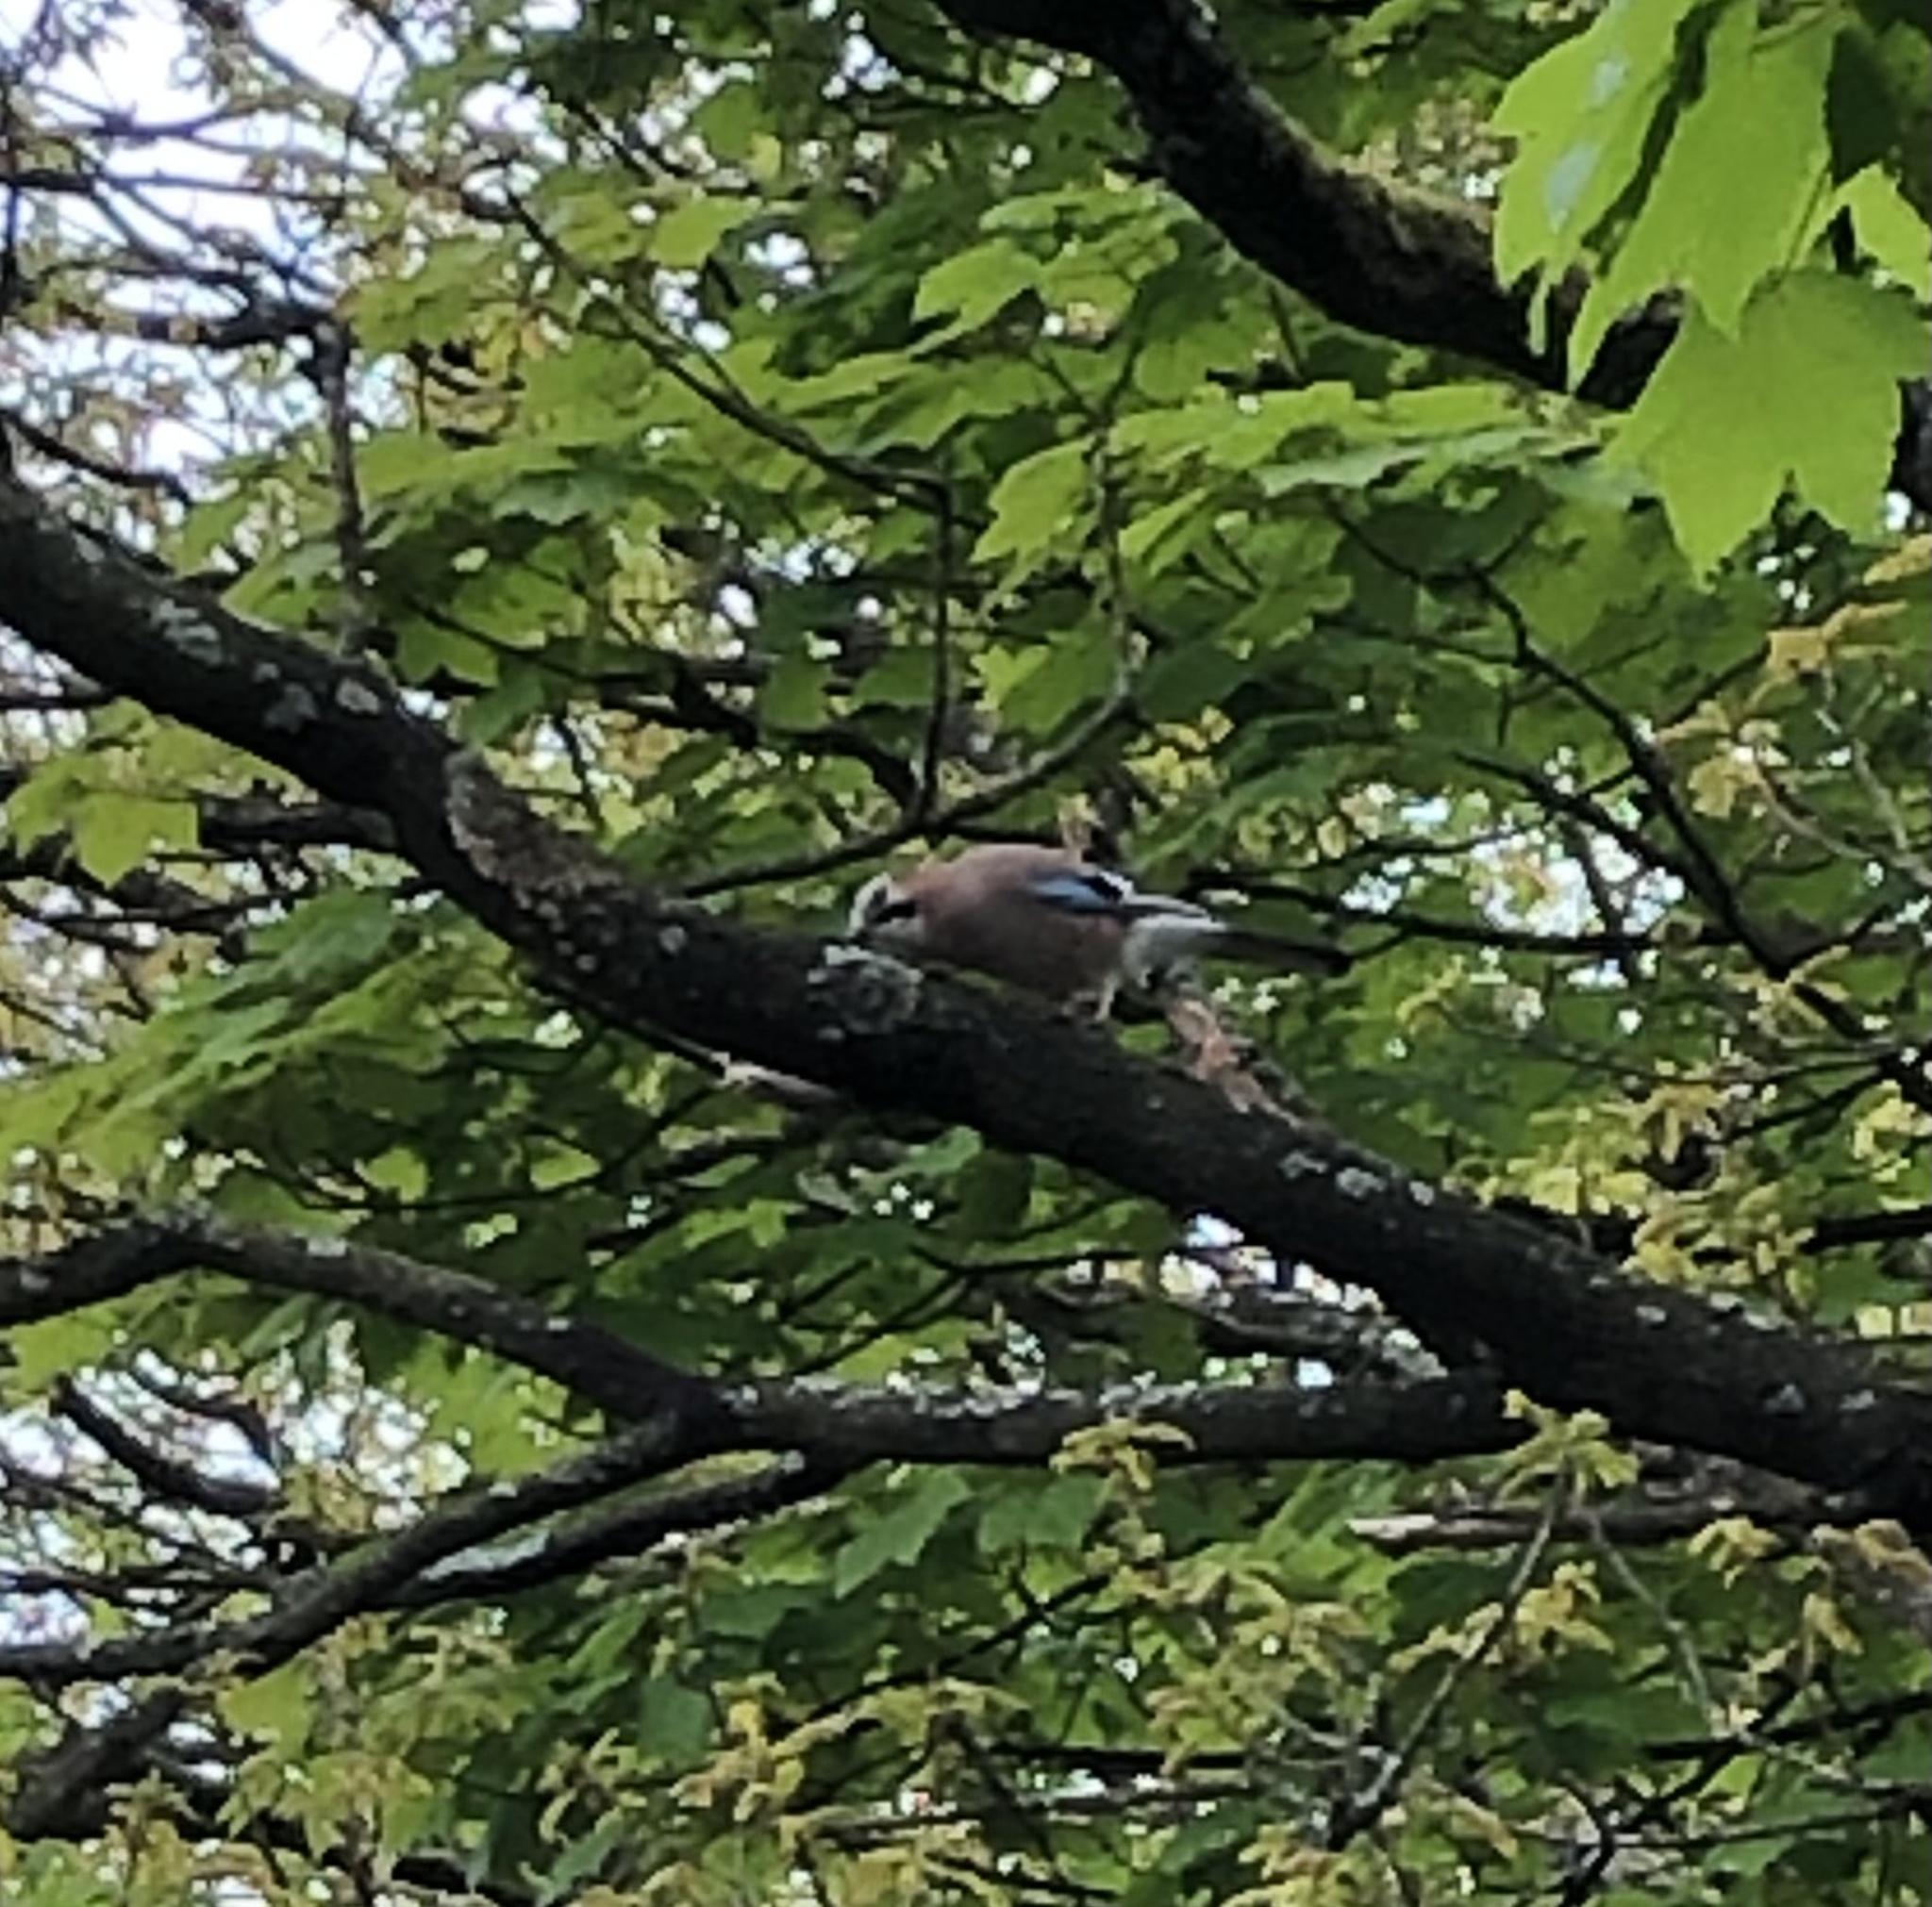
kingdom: Animalia
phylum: Chordata
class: Aves
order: Passeriformes
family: Corvidae
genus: Garrulus
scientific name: Garrulus glandarius
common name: Eurasian jay
